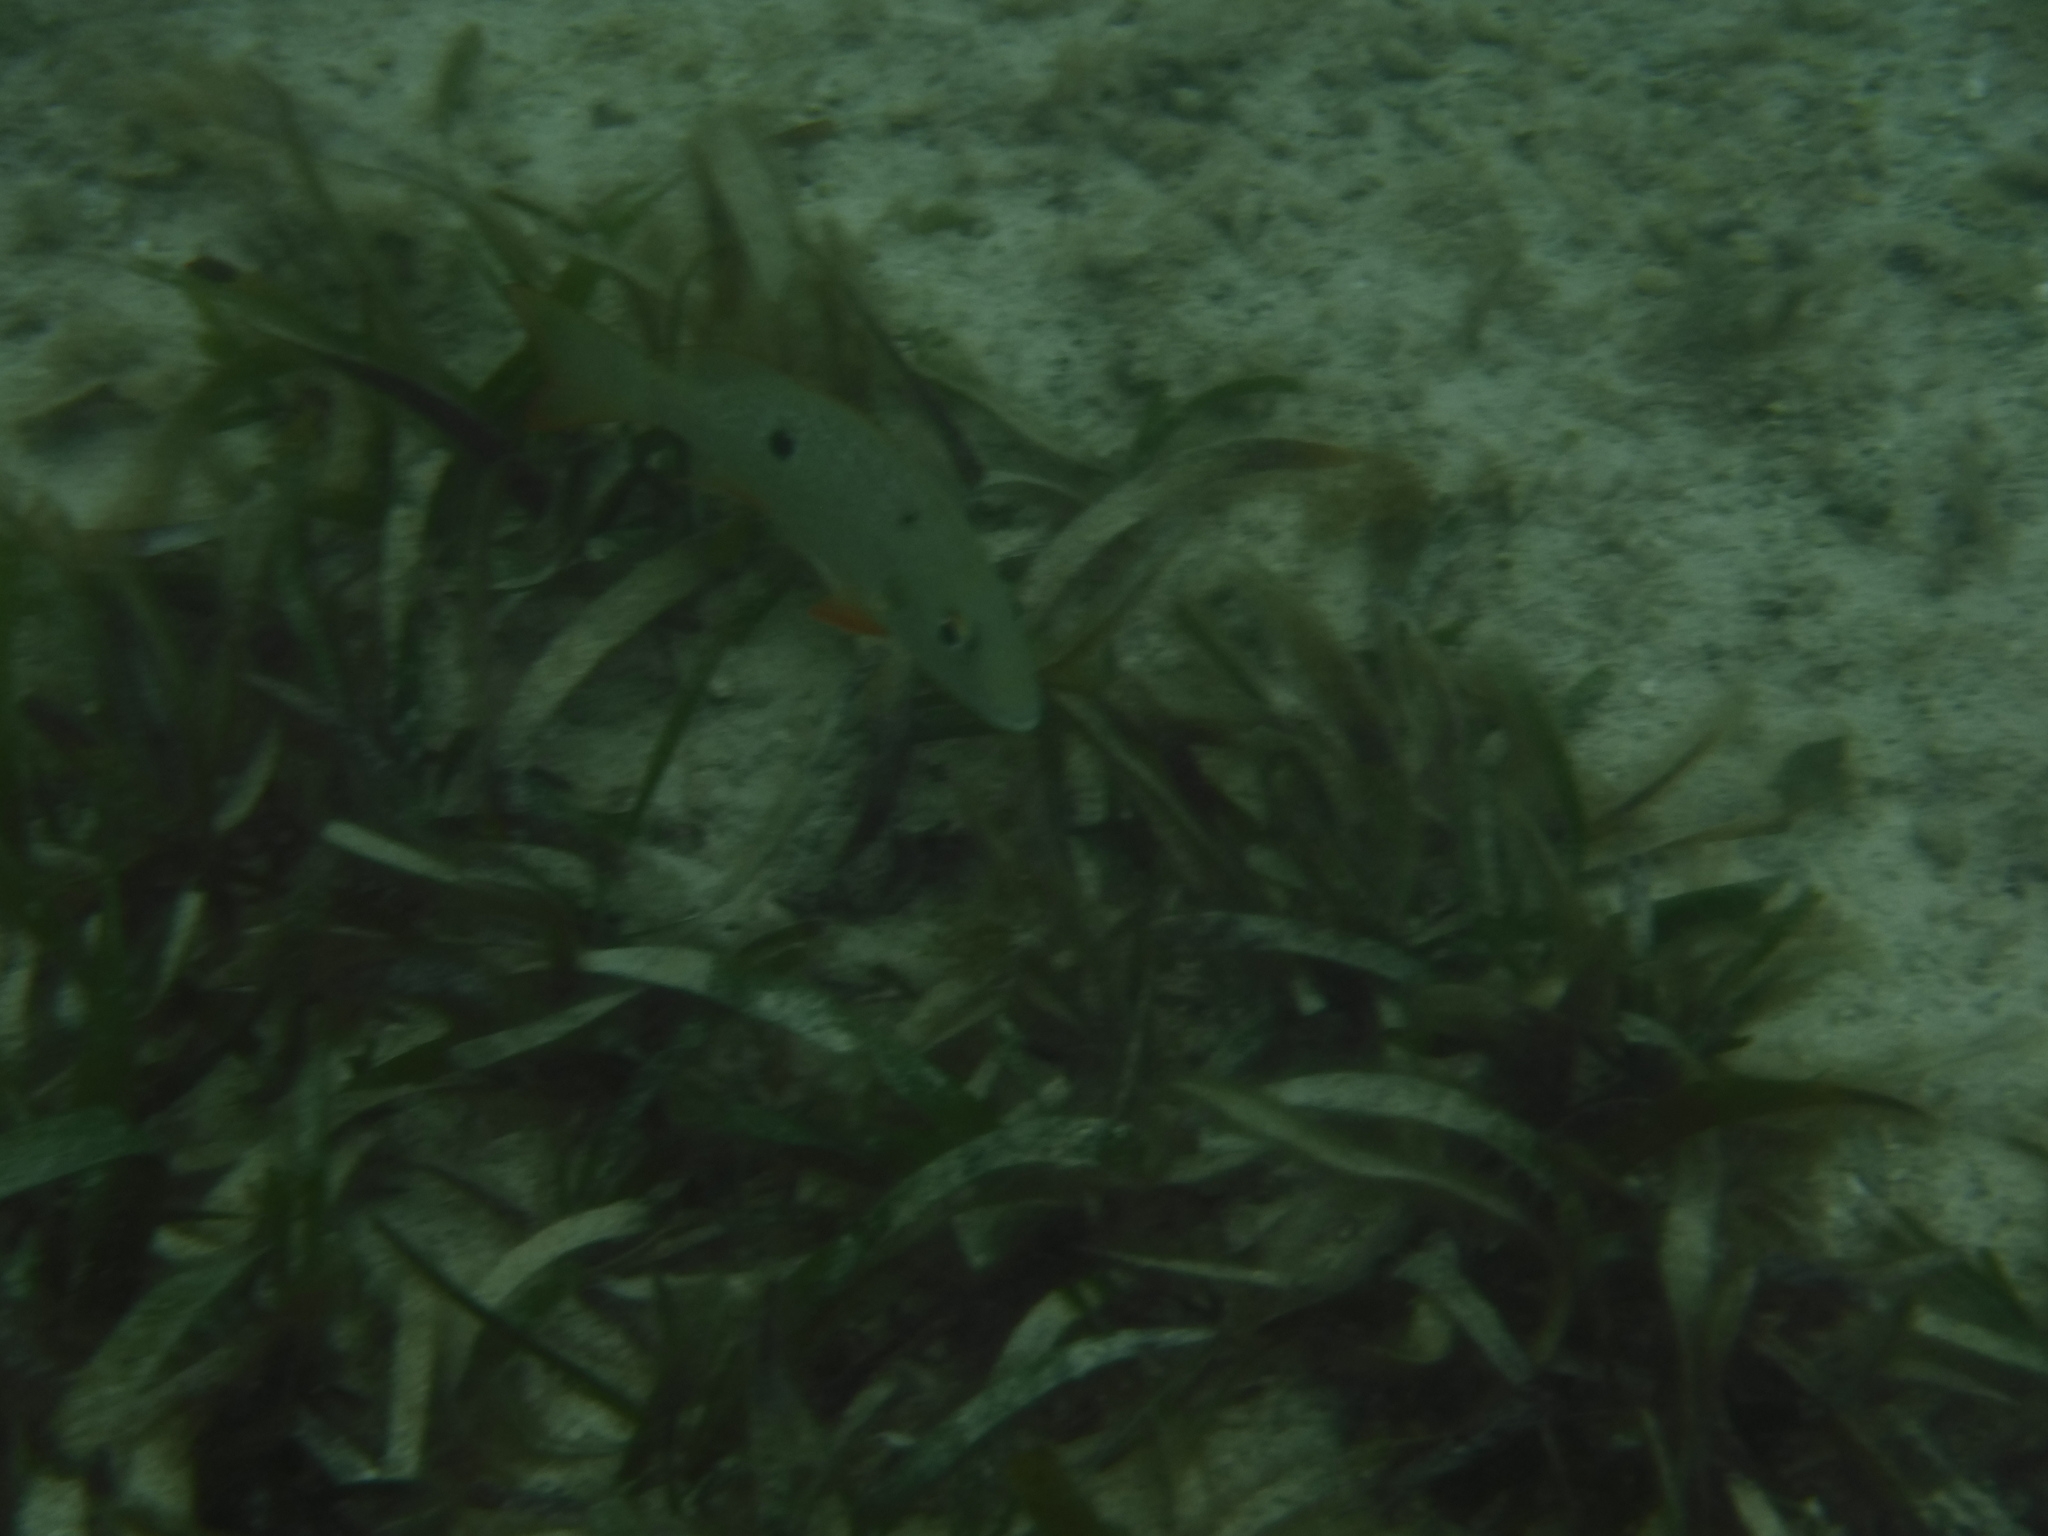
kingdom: Animalia
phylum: Chordata
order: Perciformes
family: Lutjanidae
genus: Lutjanus
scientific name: Lutjanus synagris
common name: Lane snapper
